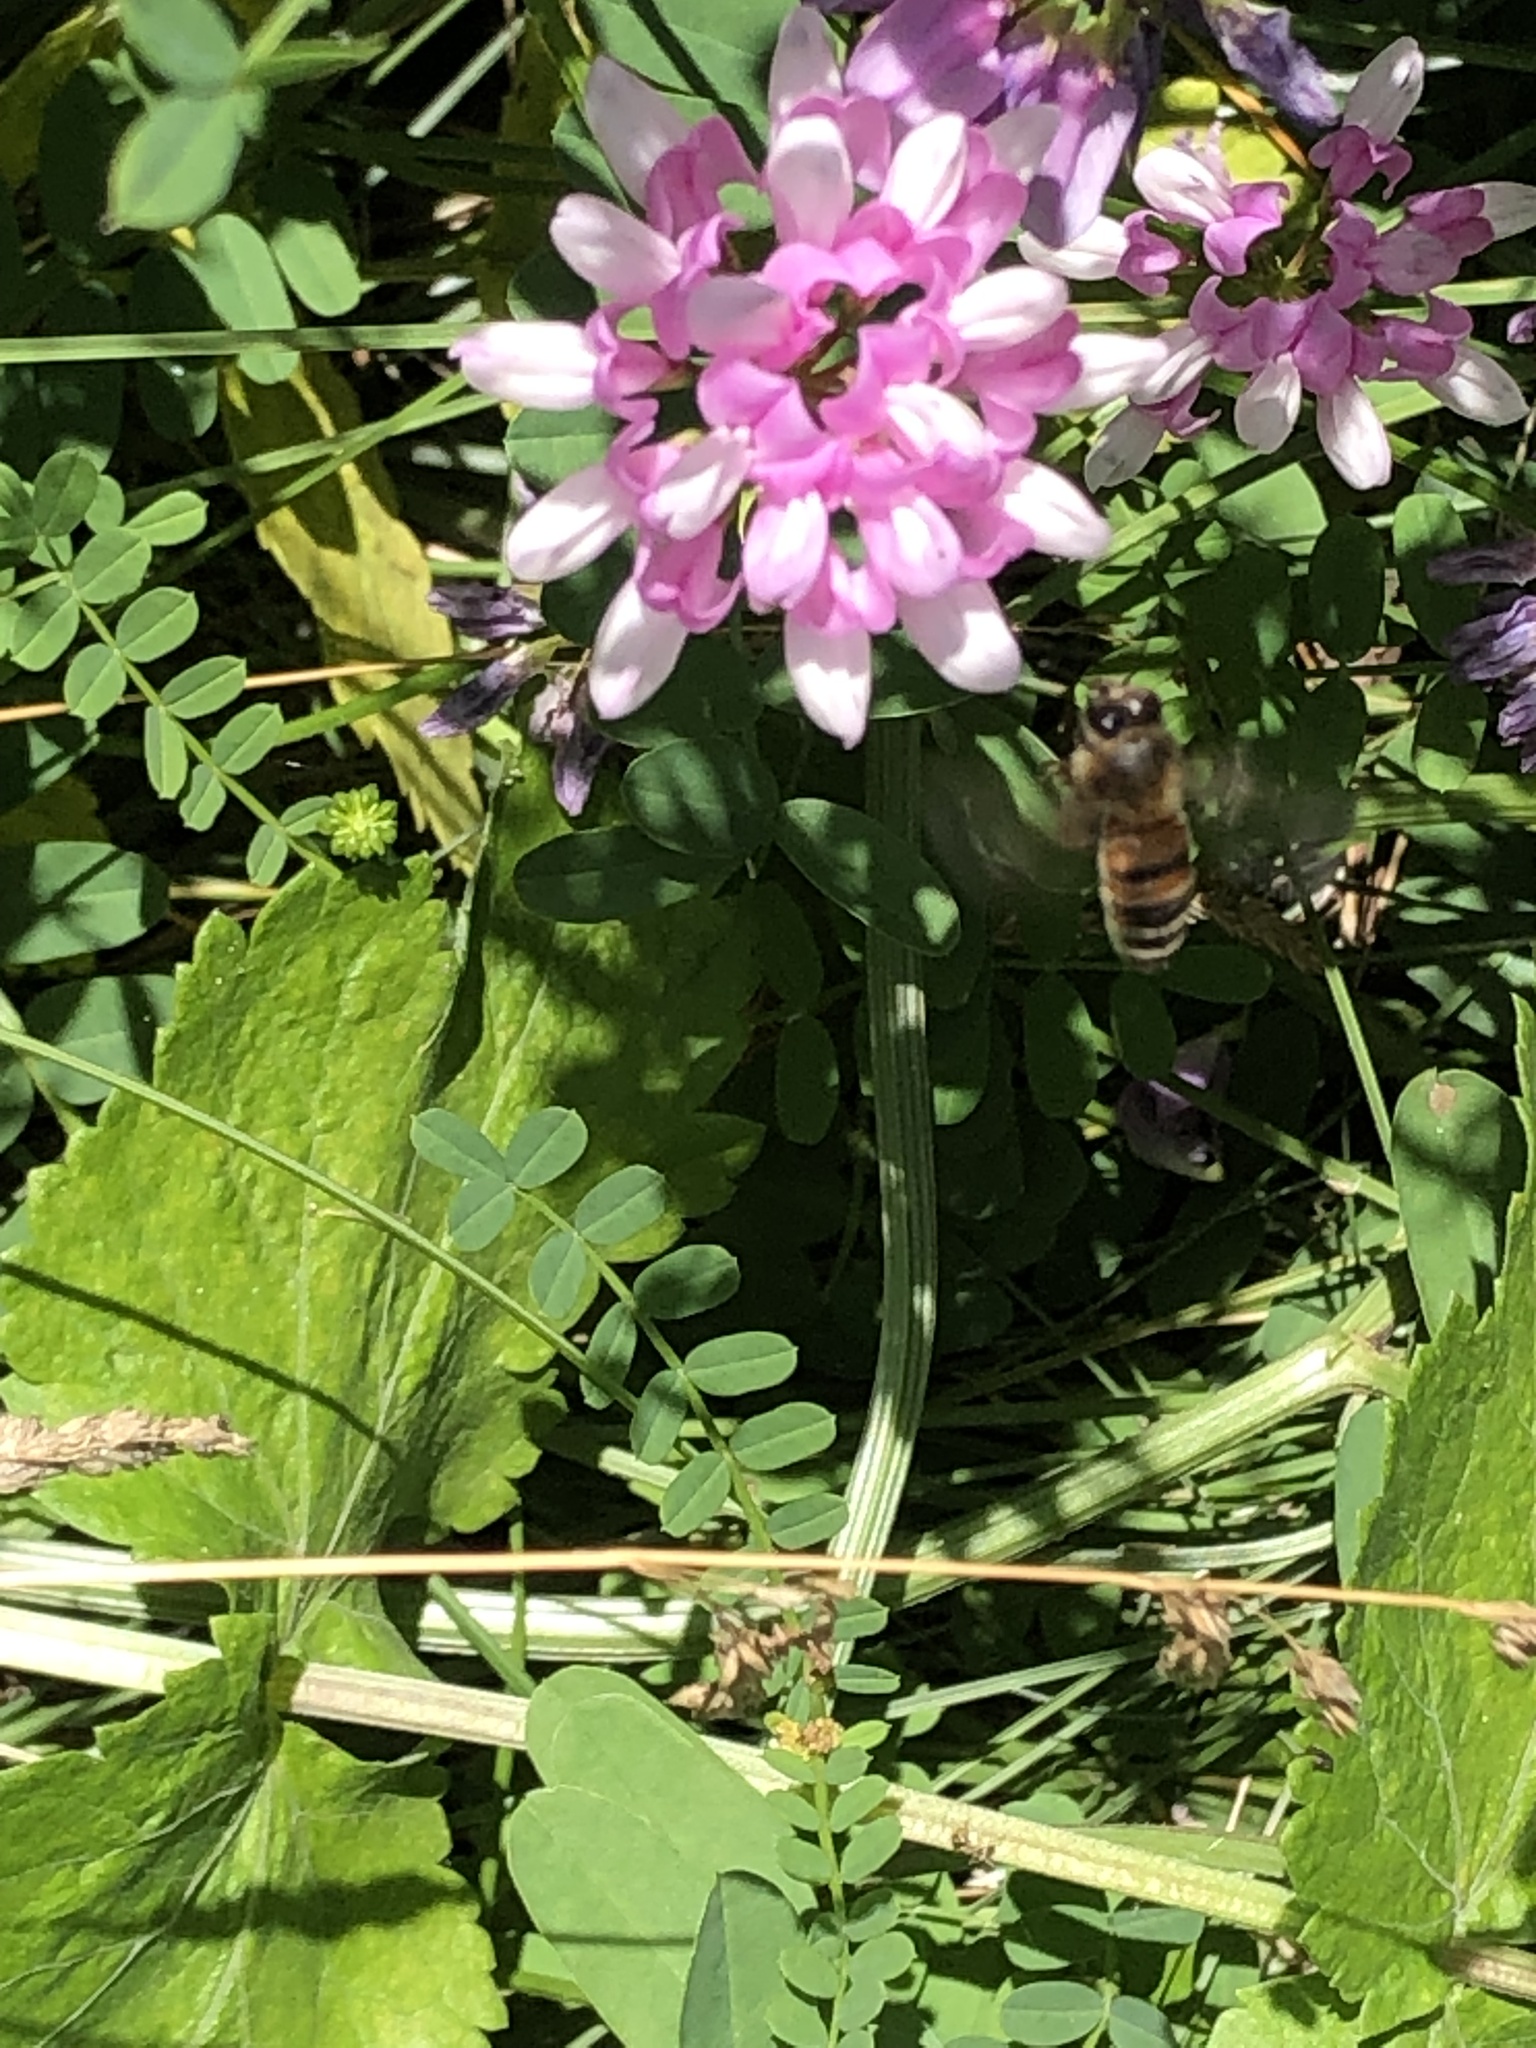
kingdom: Animalia
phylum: Arthropoda
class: Insecta
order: Hymenoptera
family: Apidae
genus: Apis
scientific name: Apis mellifera
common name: Honey bee
